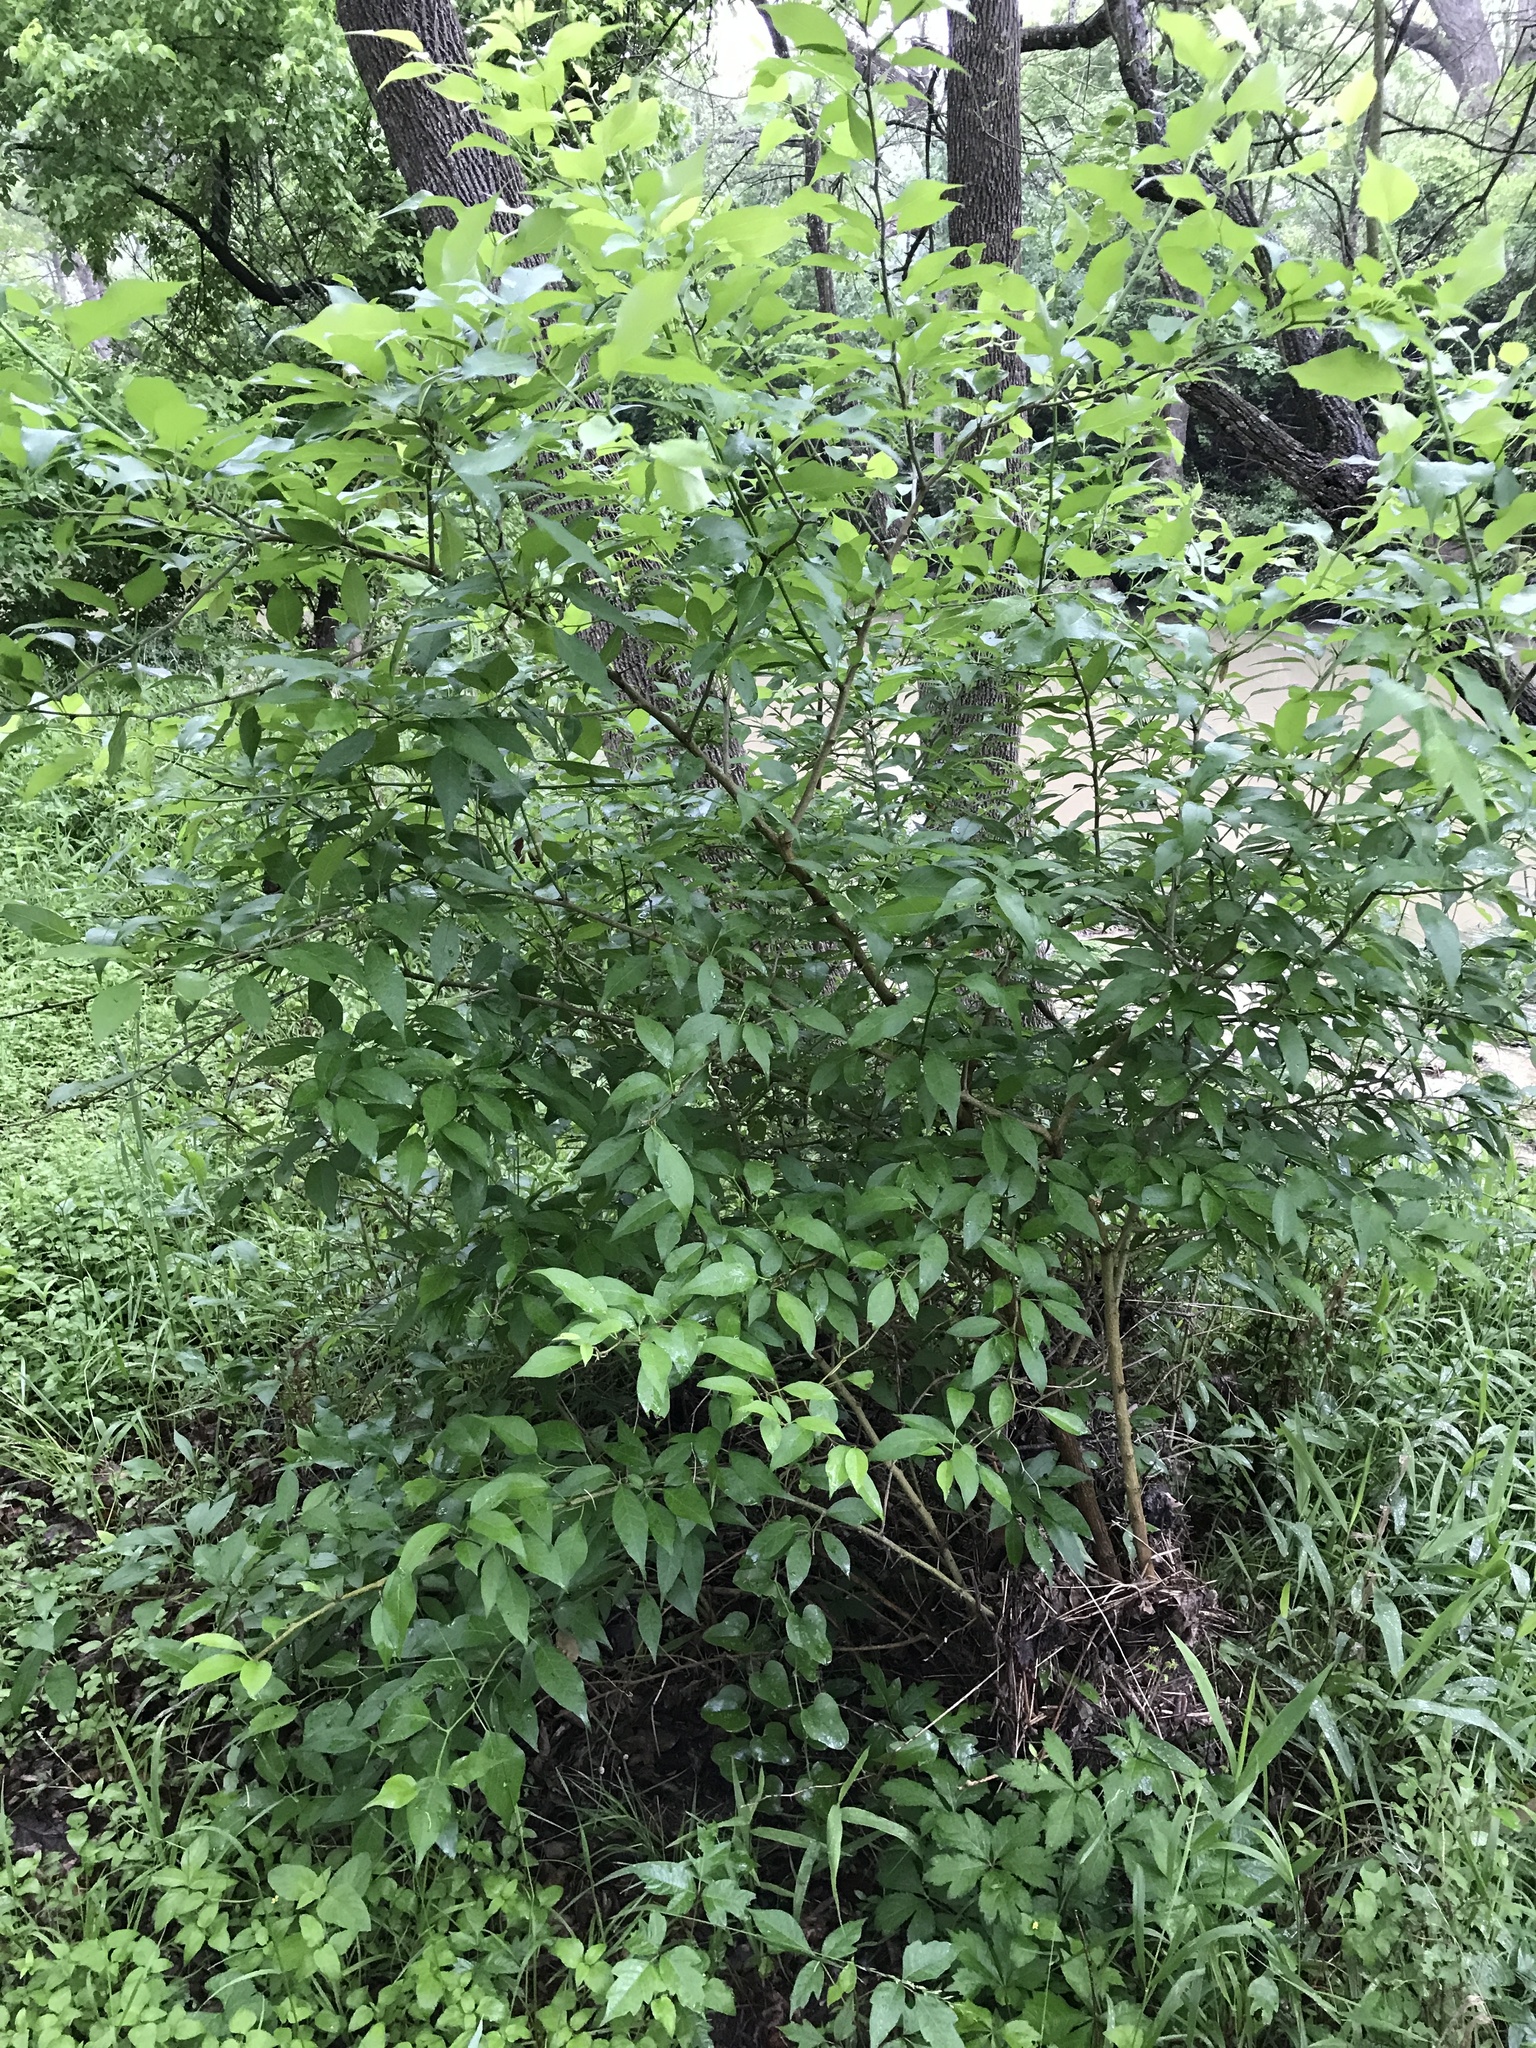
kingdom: Plantae
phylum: Tracheophyta
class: Magnoliopsida
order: Rosales
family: Moraceae
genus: Maclura
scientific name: Maclura pomifera
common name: Osage-orange
